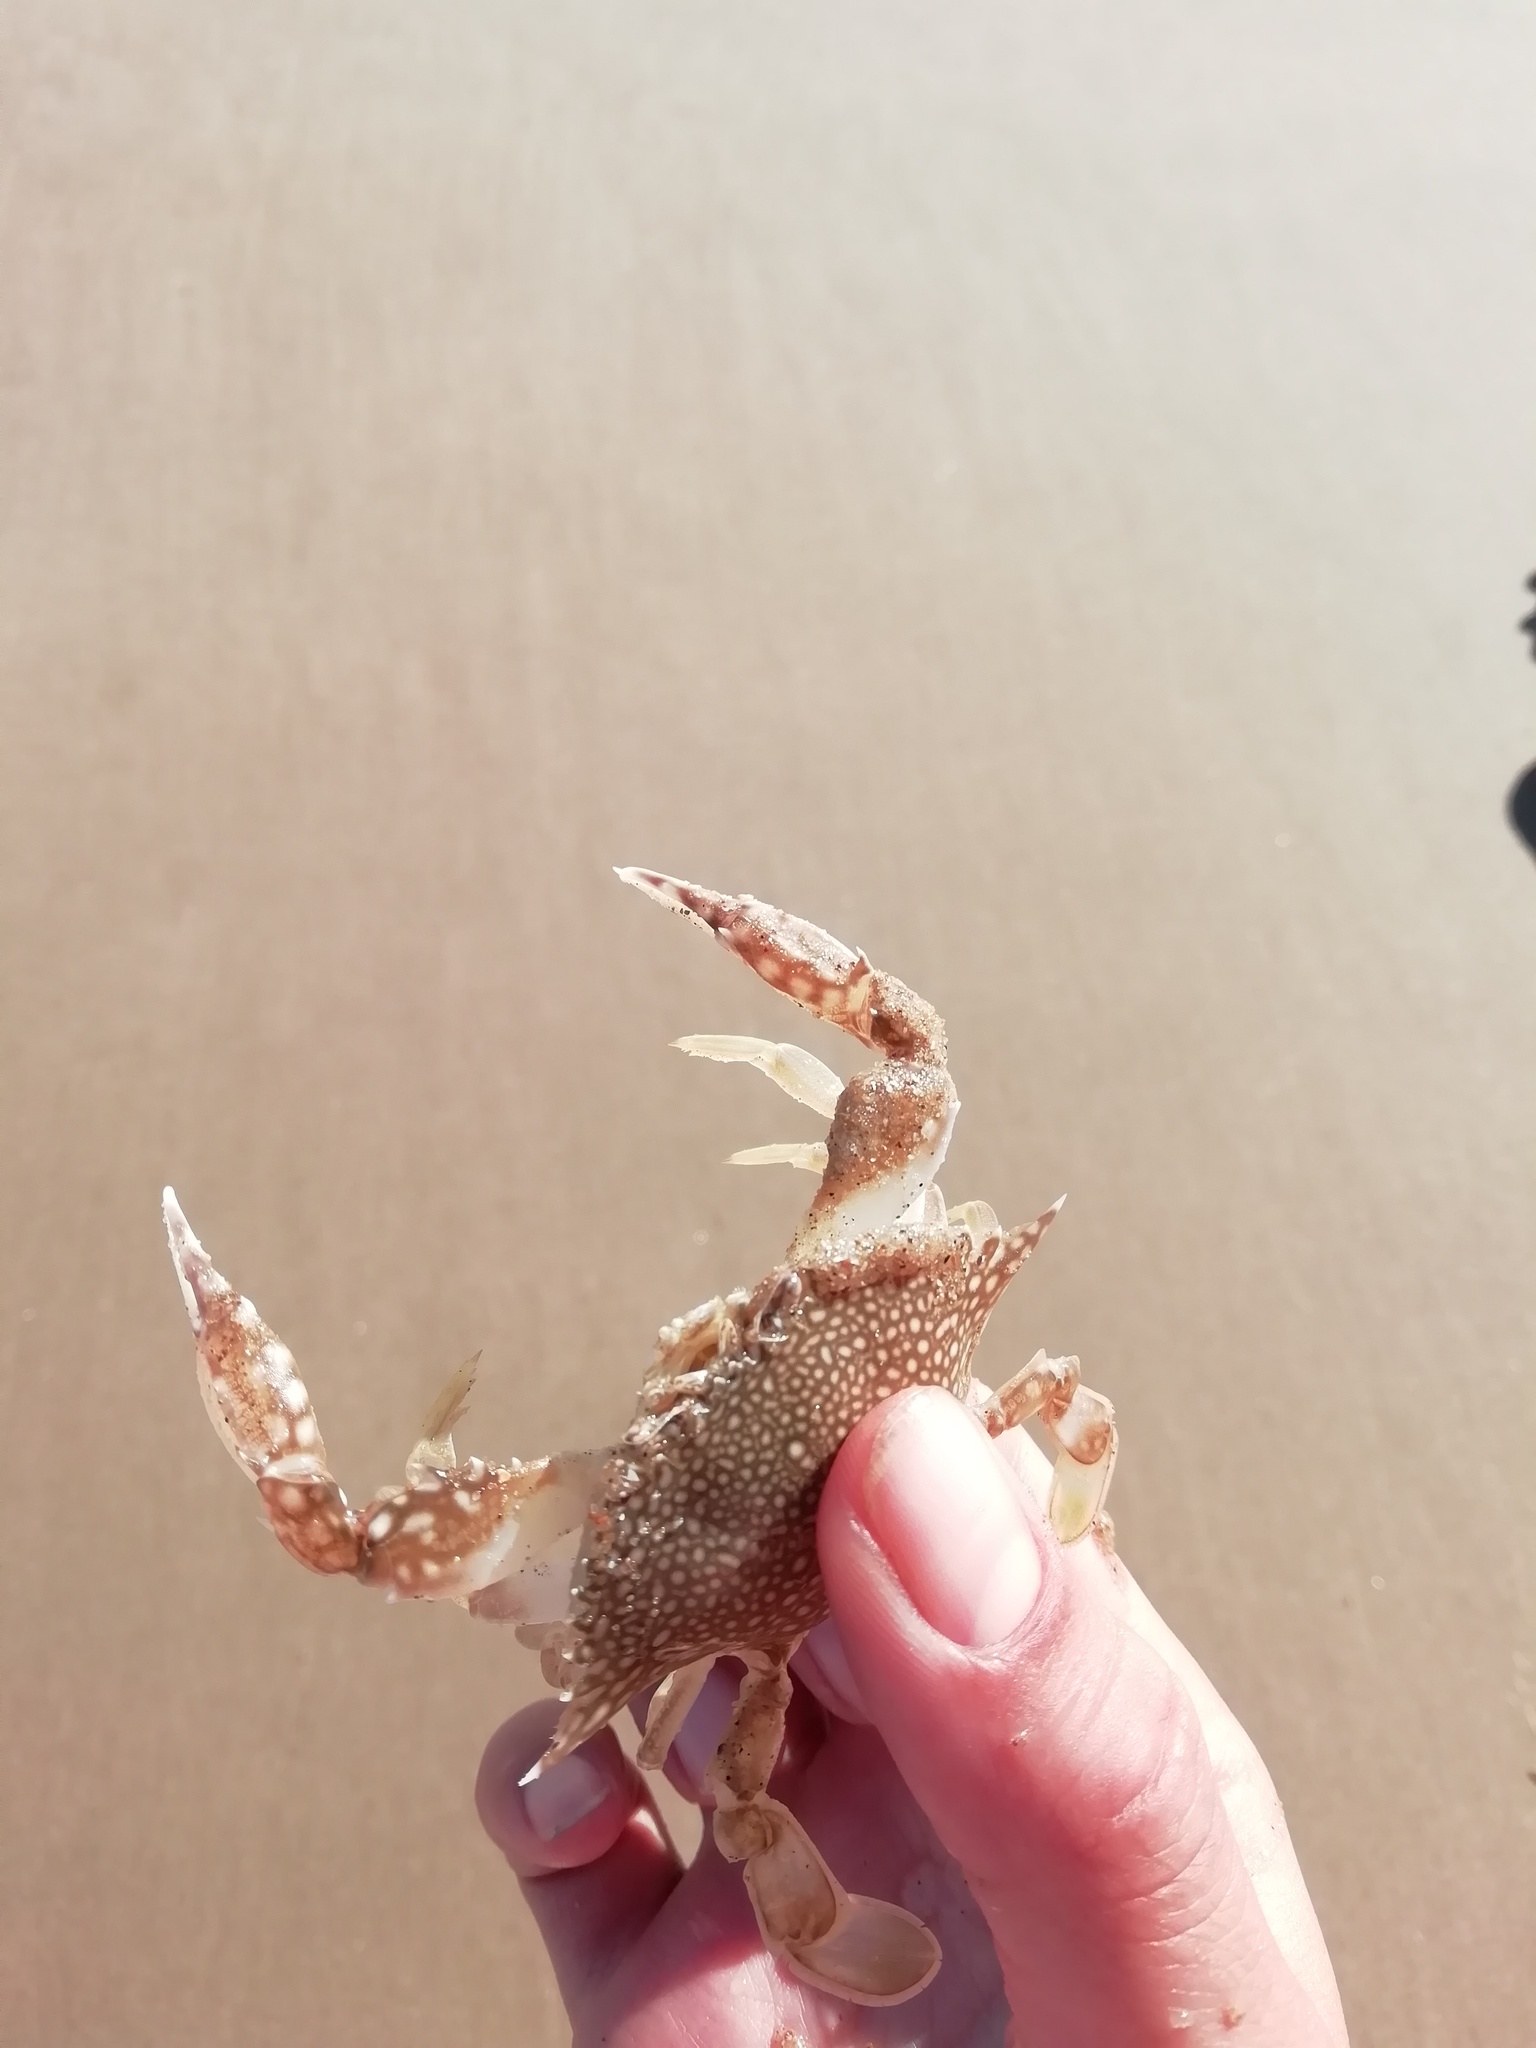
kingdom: Animalia
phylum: Arthropoda
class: Malacostraca
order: Decapoda
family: Portunidae
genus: Arenaeus
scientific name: Arenaeus cribrarius
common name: Speckled crab
